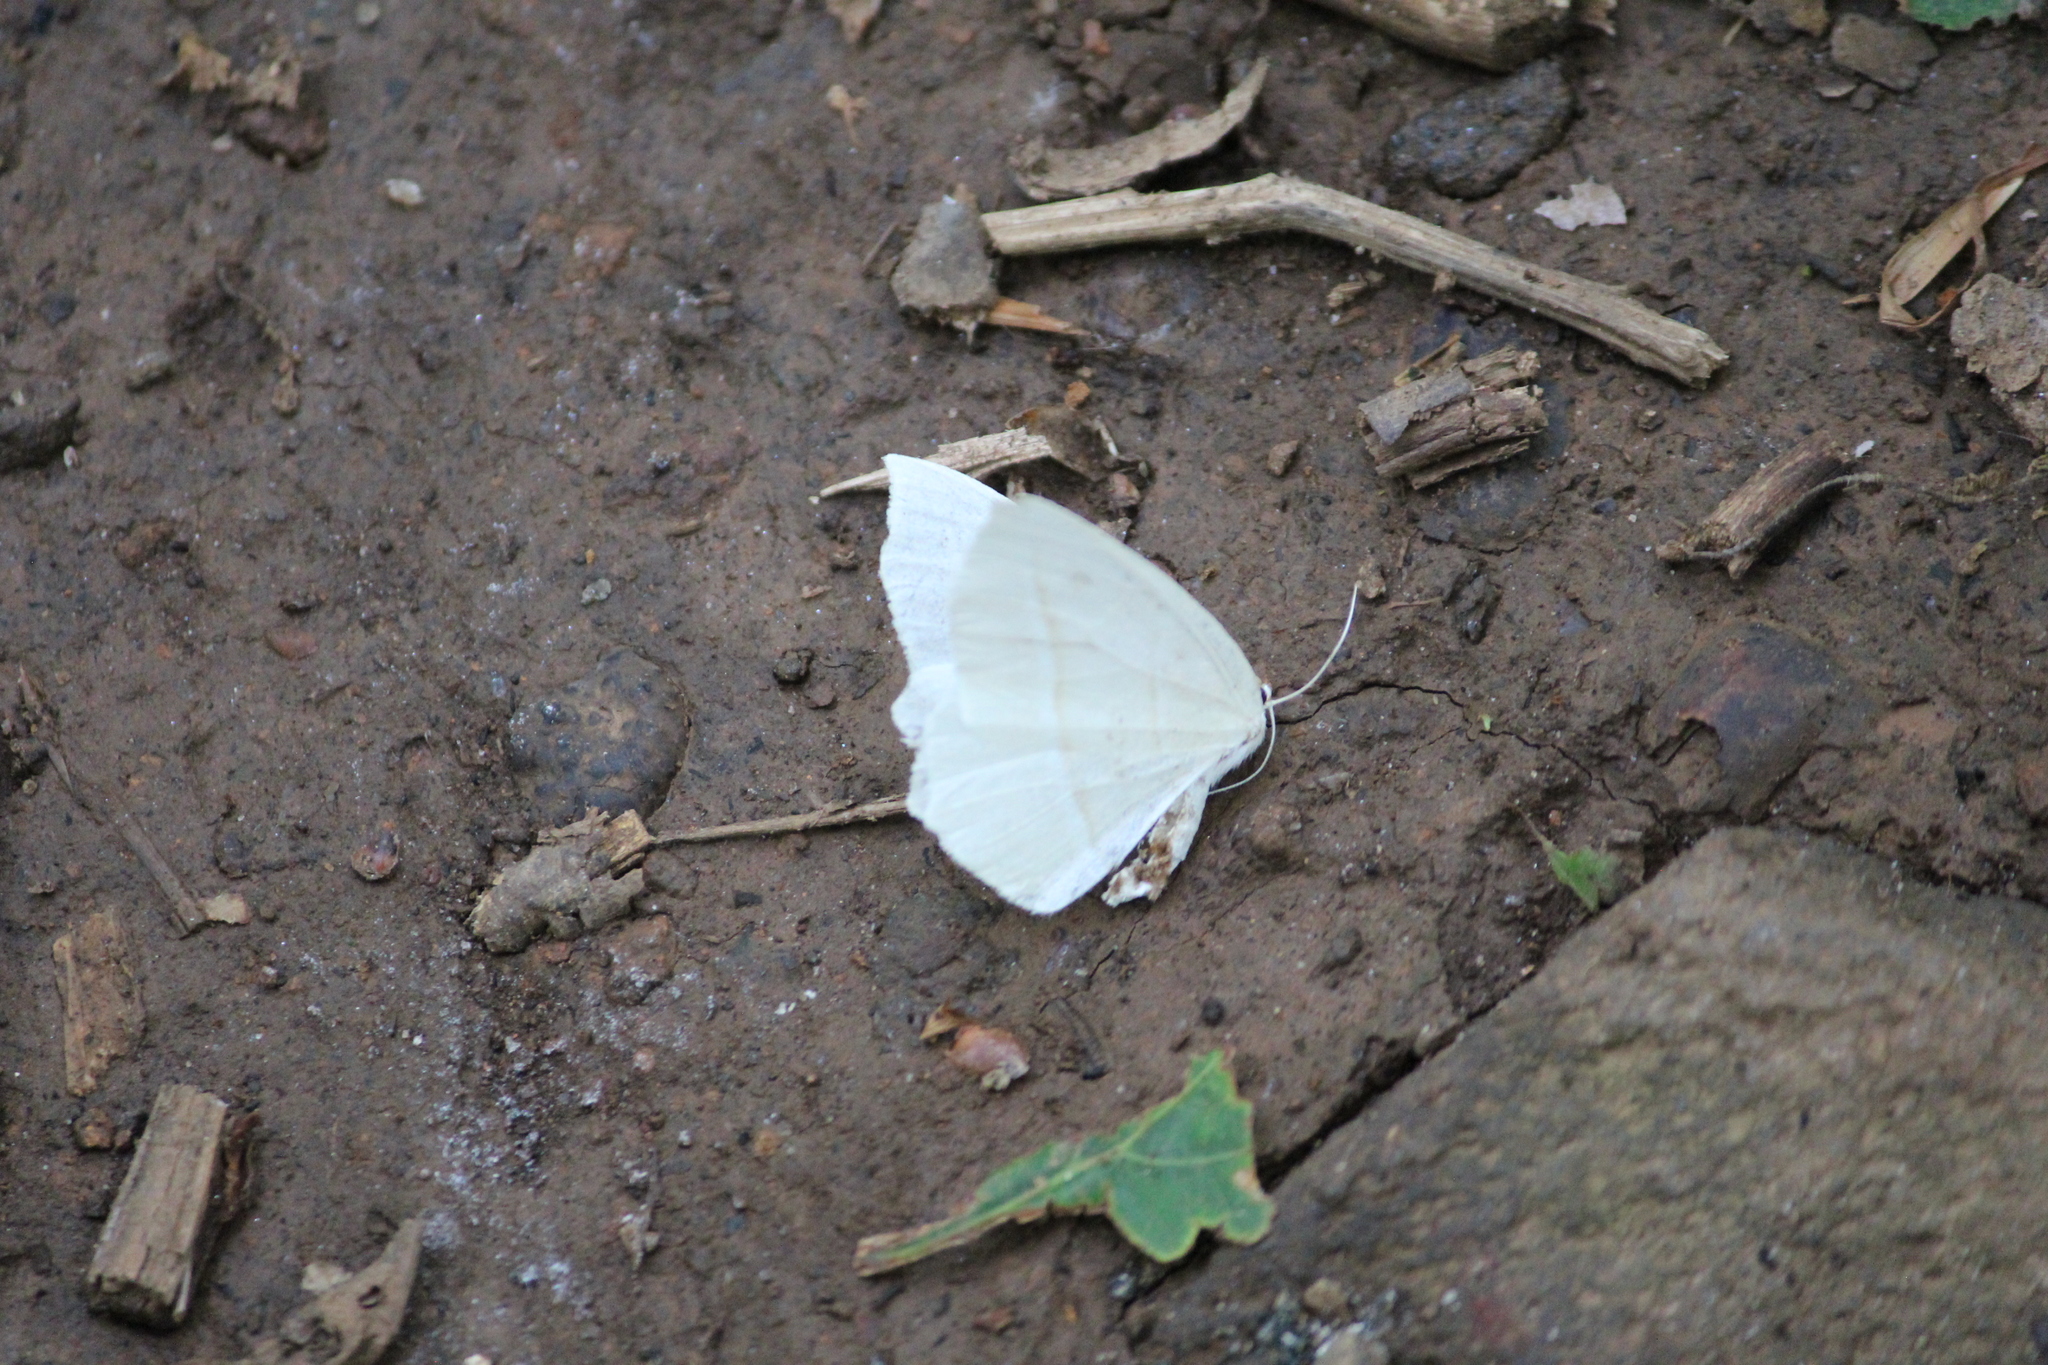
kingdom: Animalia
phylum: Arthropoda
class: Insecta
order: Lepidoptera
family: Geometridae
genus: Campaea
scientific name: Campaea perlata
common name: Fringed looper
